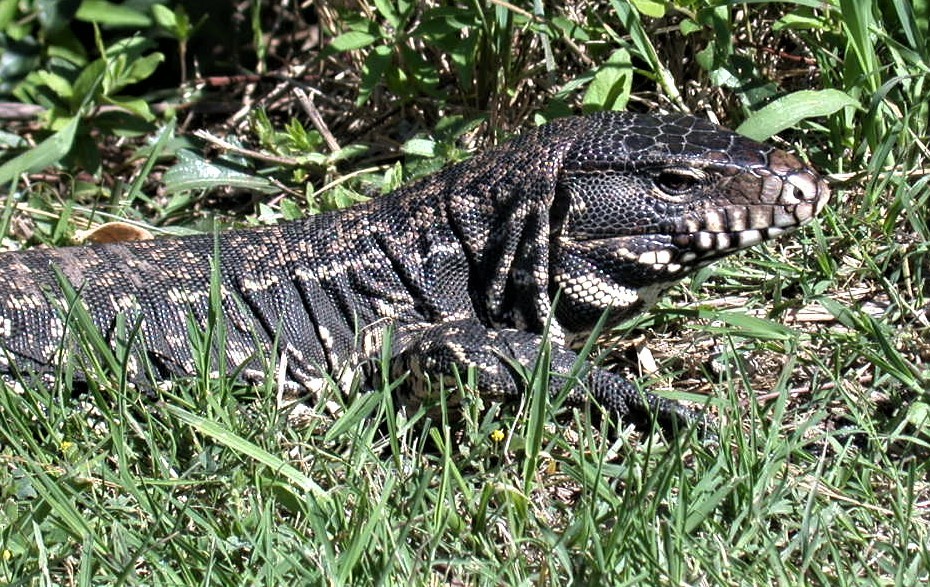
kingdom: Animalia
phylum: Chordata
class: Squamata
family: Teiidae
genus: Salvator
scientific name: Salvator merianae
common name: Argentine black and white tegu
